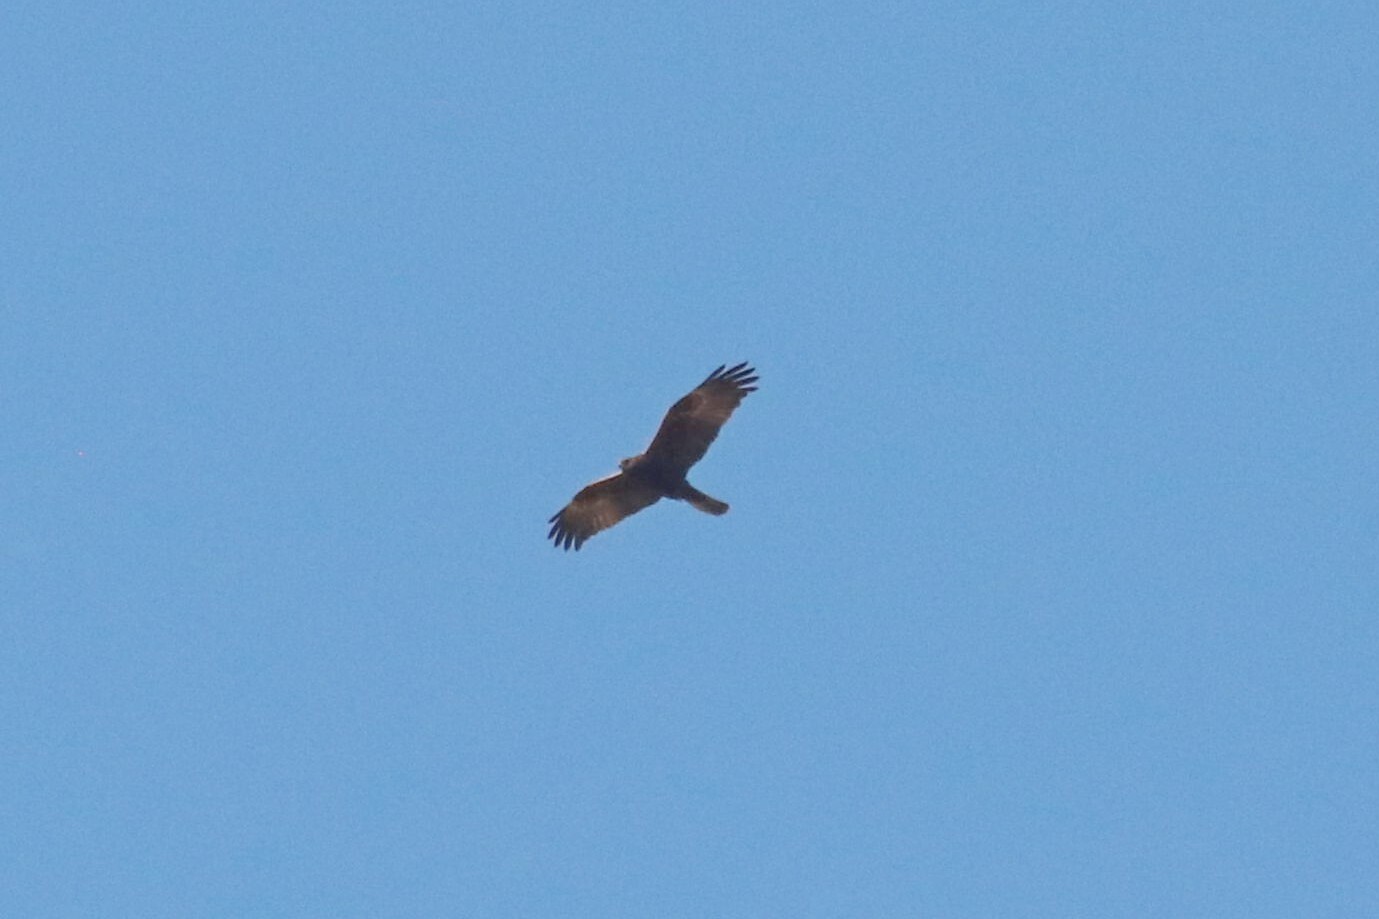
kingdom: Animalia
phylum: Chordata
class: Aves
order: Accipitriformes
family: Accipitridae
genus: Circus
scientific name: Circus aeruginosus
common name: Western marsh harrier
